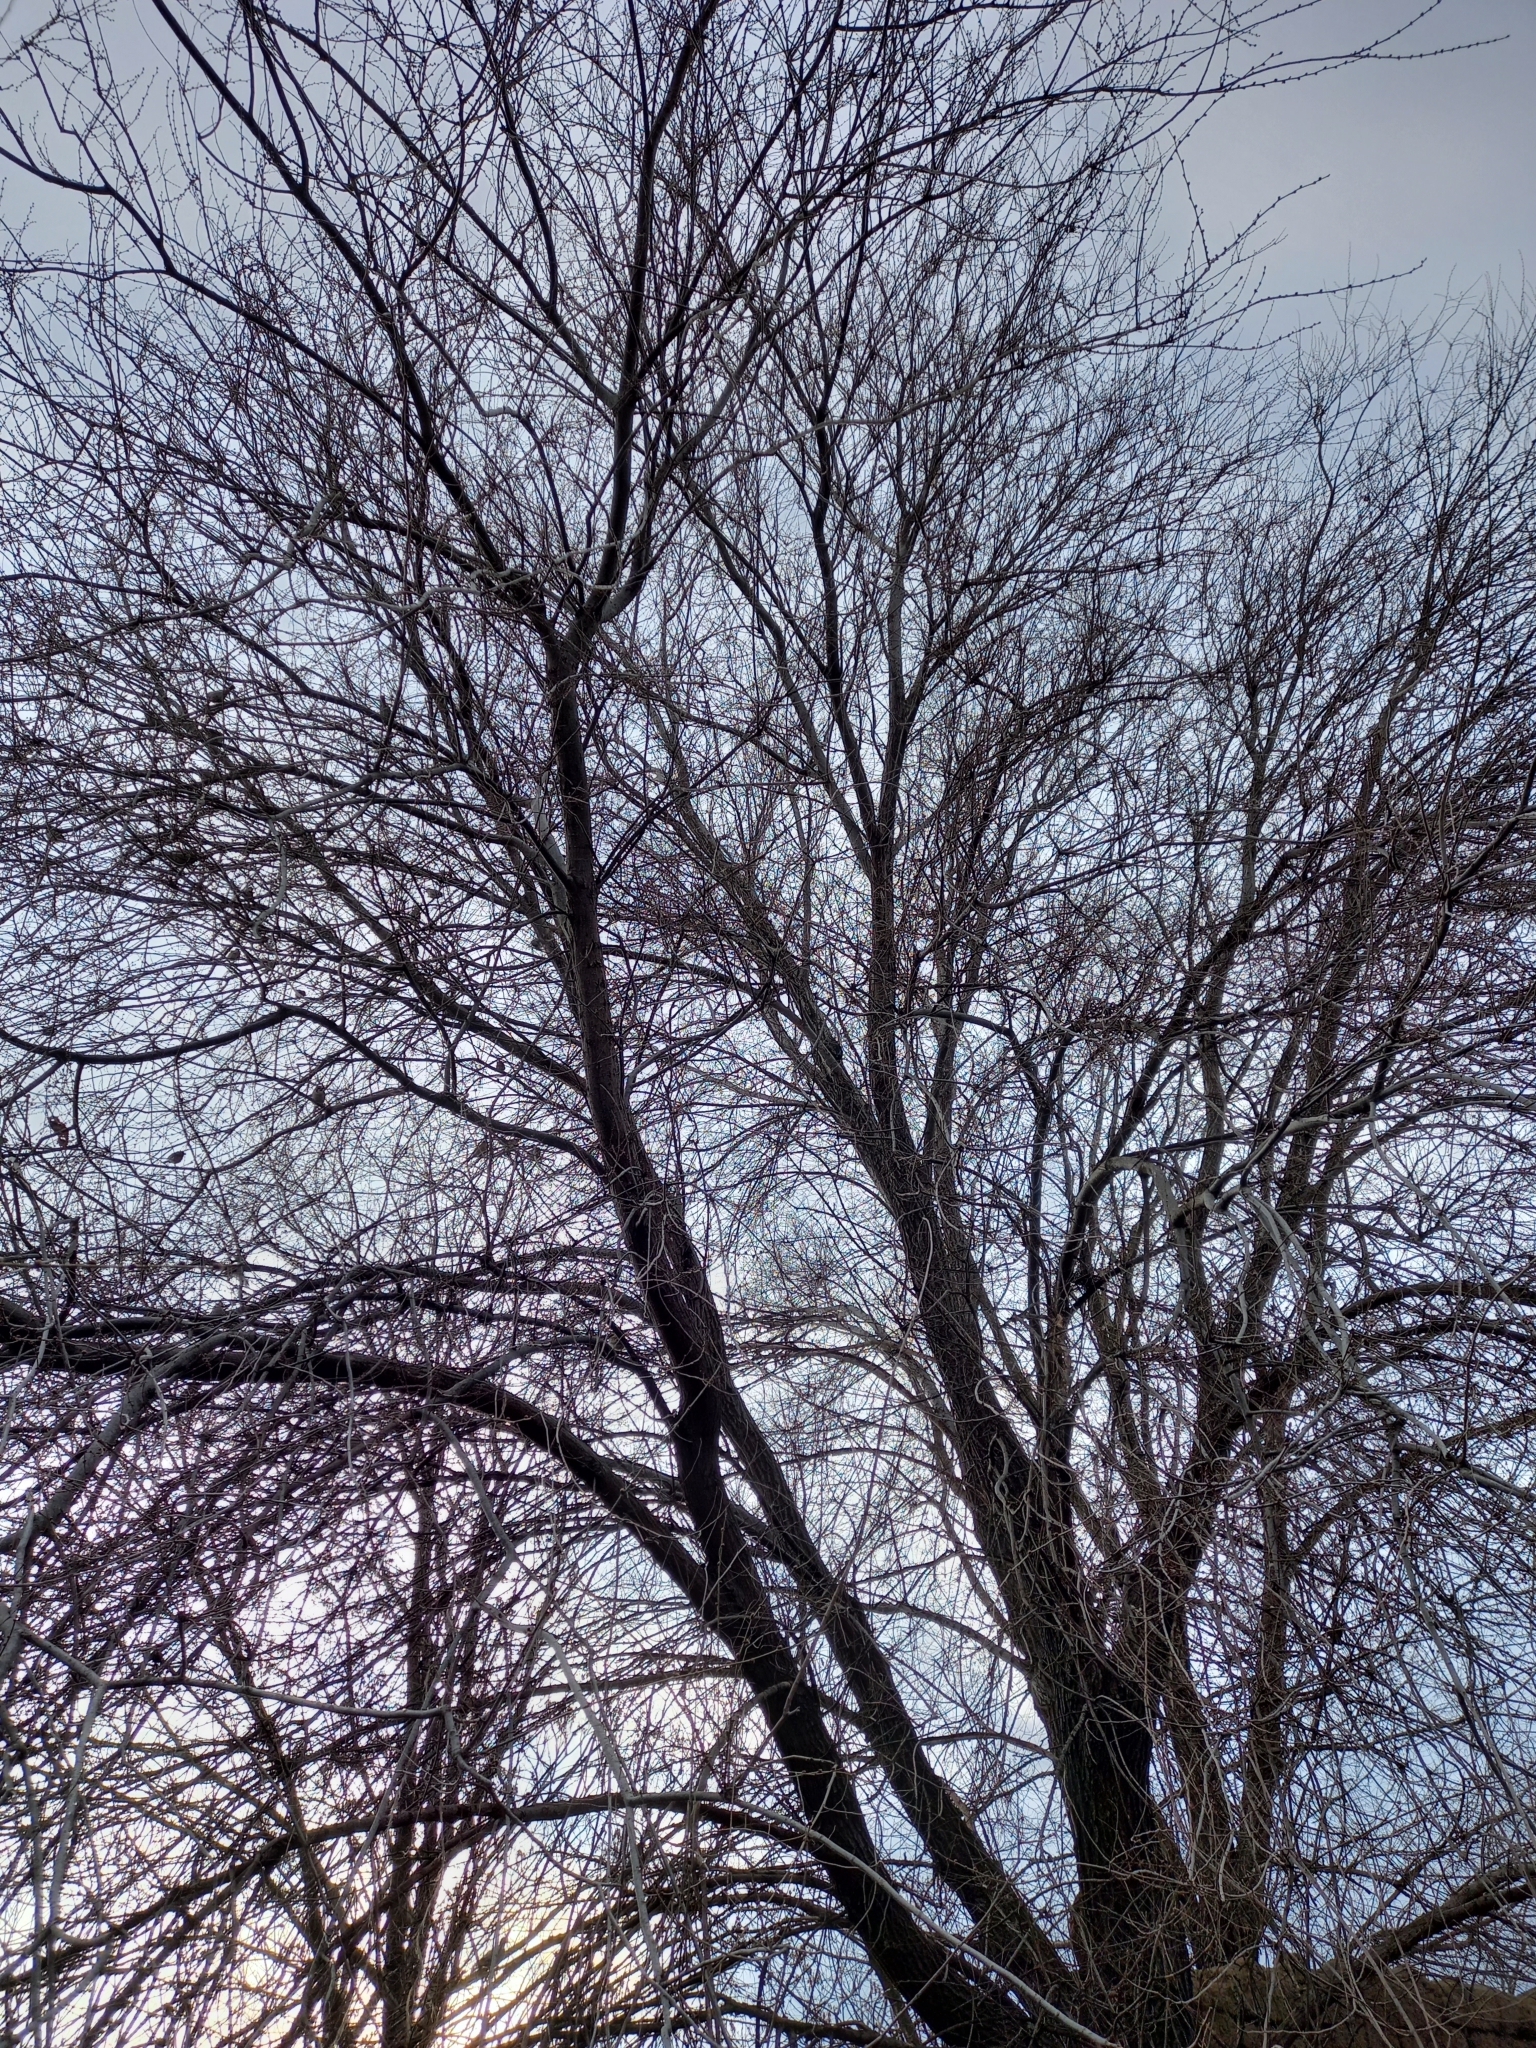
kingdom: Plantae
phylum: Tracheophyta
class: Magnoliopsida
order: Rosales
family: Ulmaceae
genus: Ulmus
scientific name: Ulmus pumila
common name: Siberian elm
